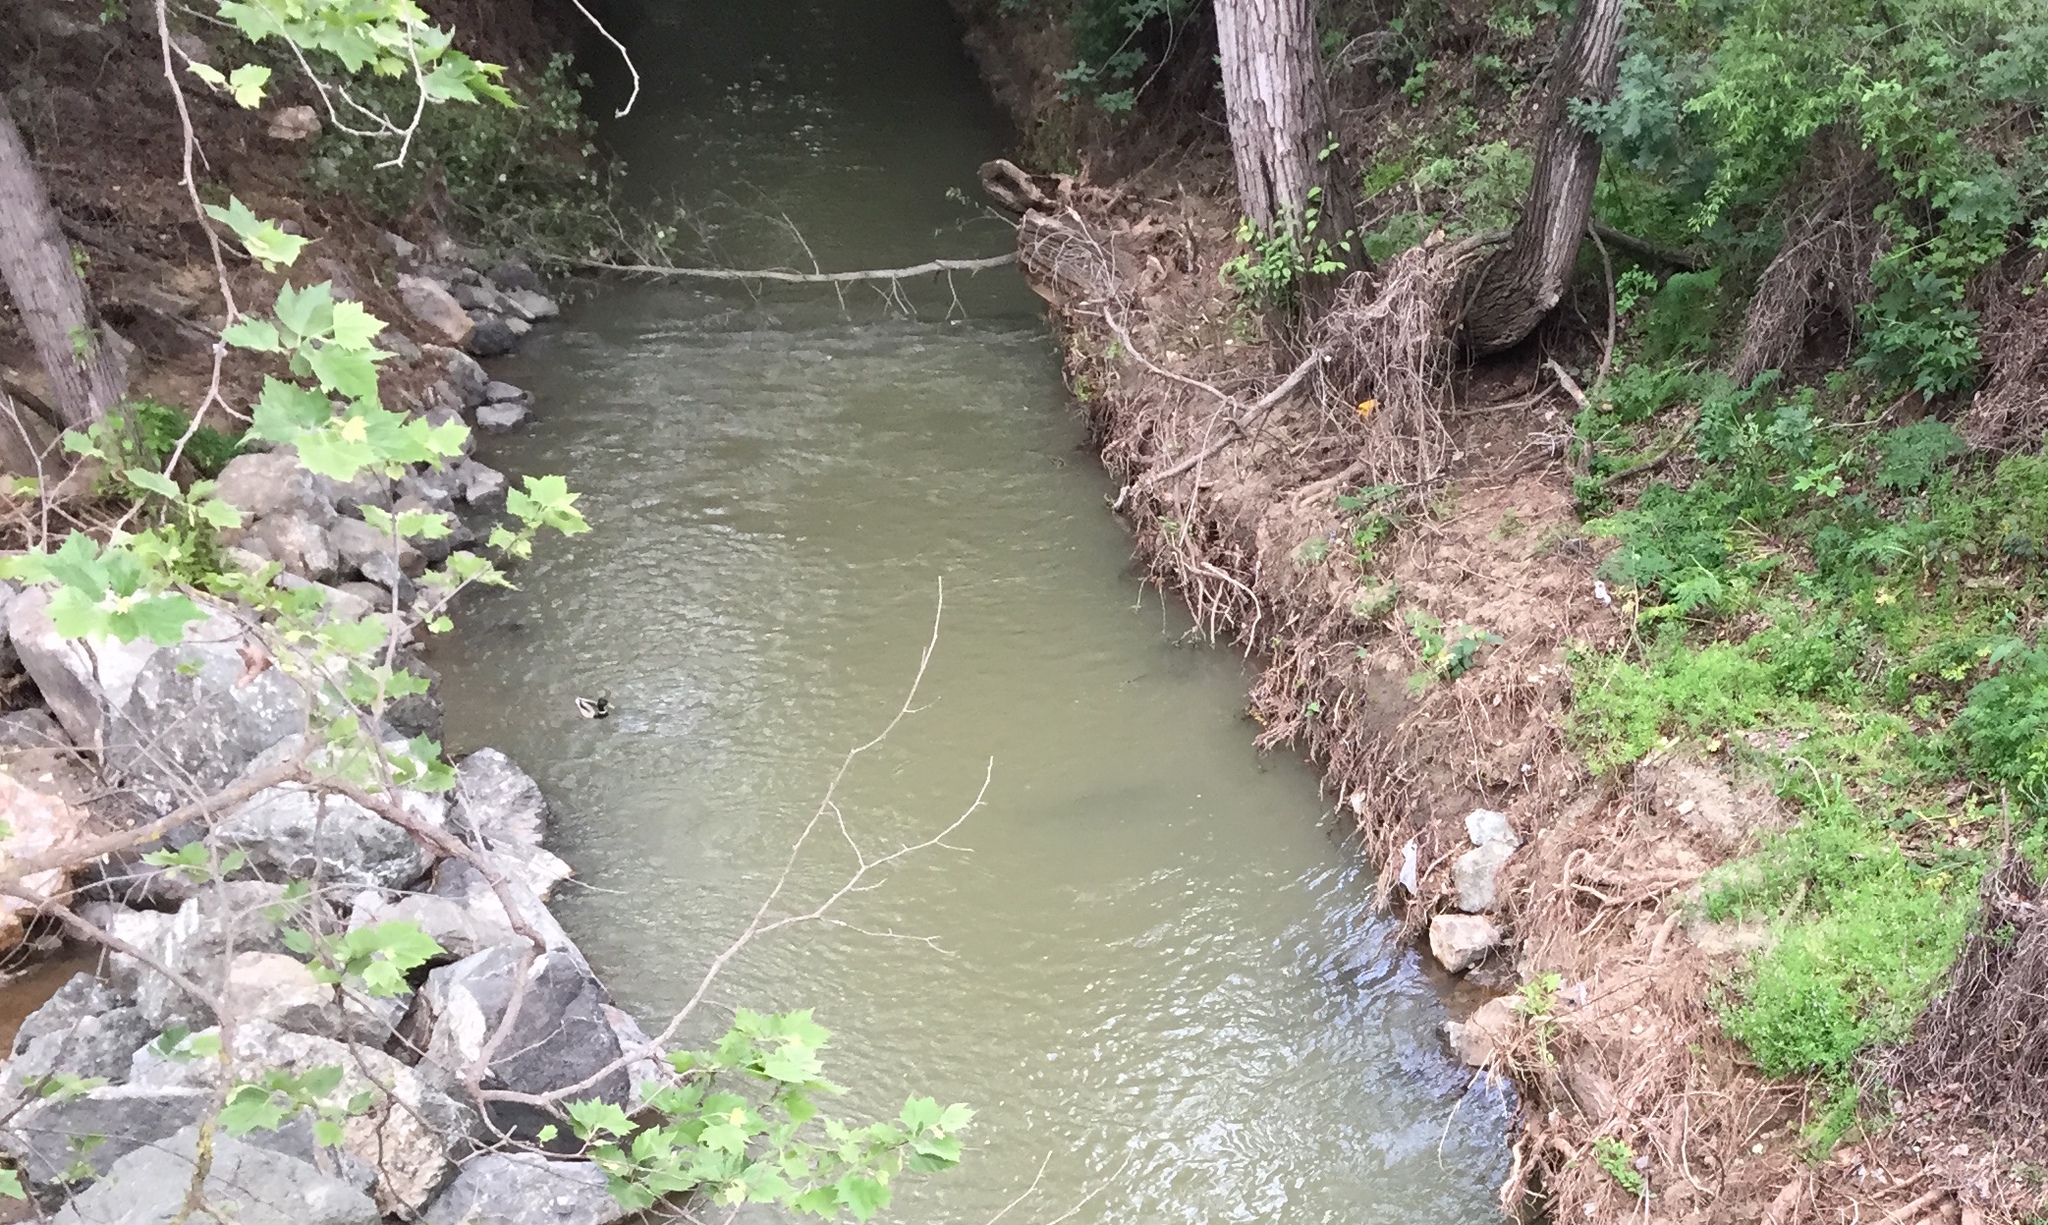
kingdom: Animalia
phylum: Chordata
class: Aves
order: Anseriformes
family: Anatidae
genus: Anas
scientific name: Anas platyrhynchos
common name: Mallard
